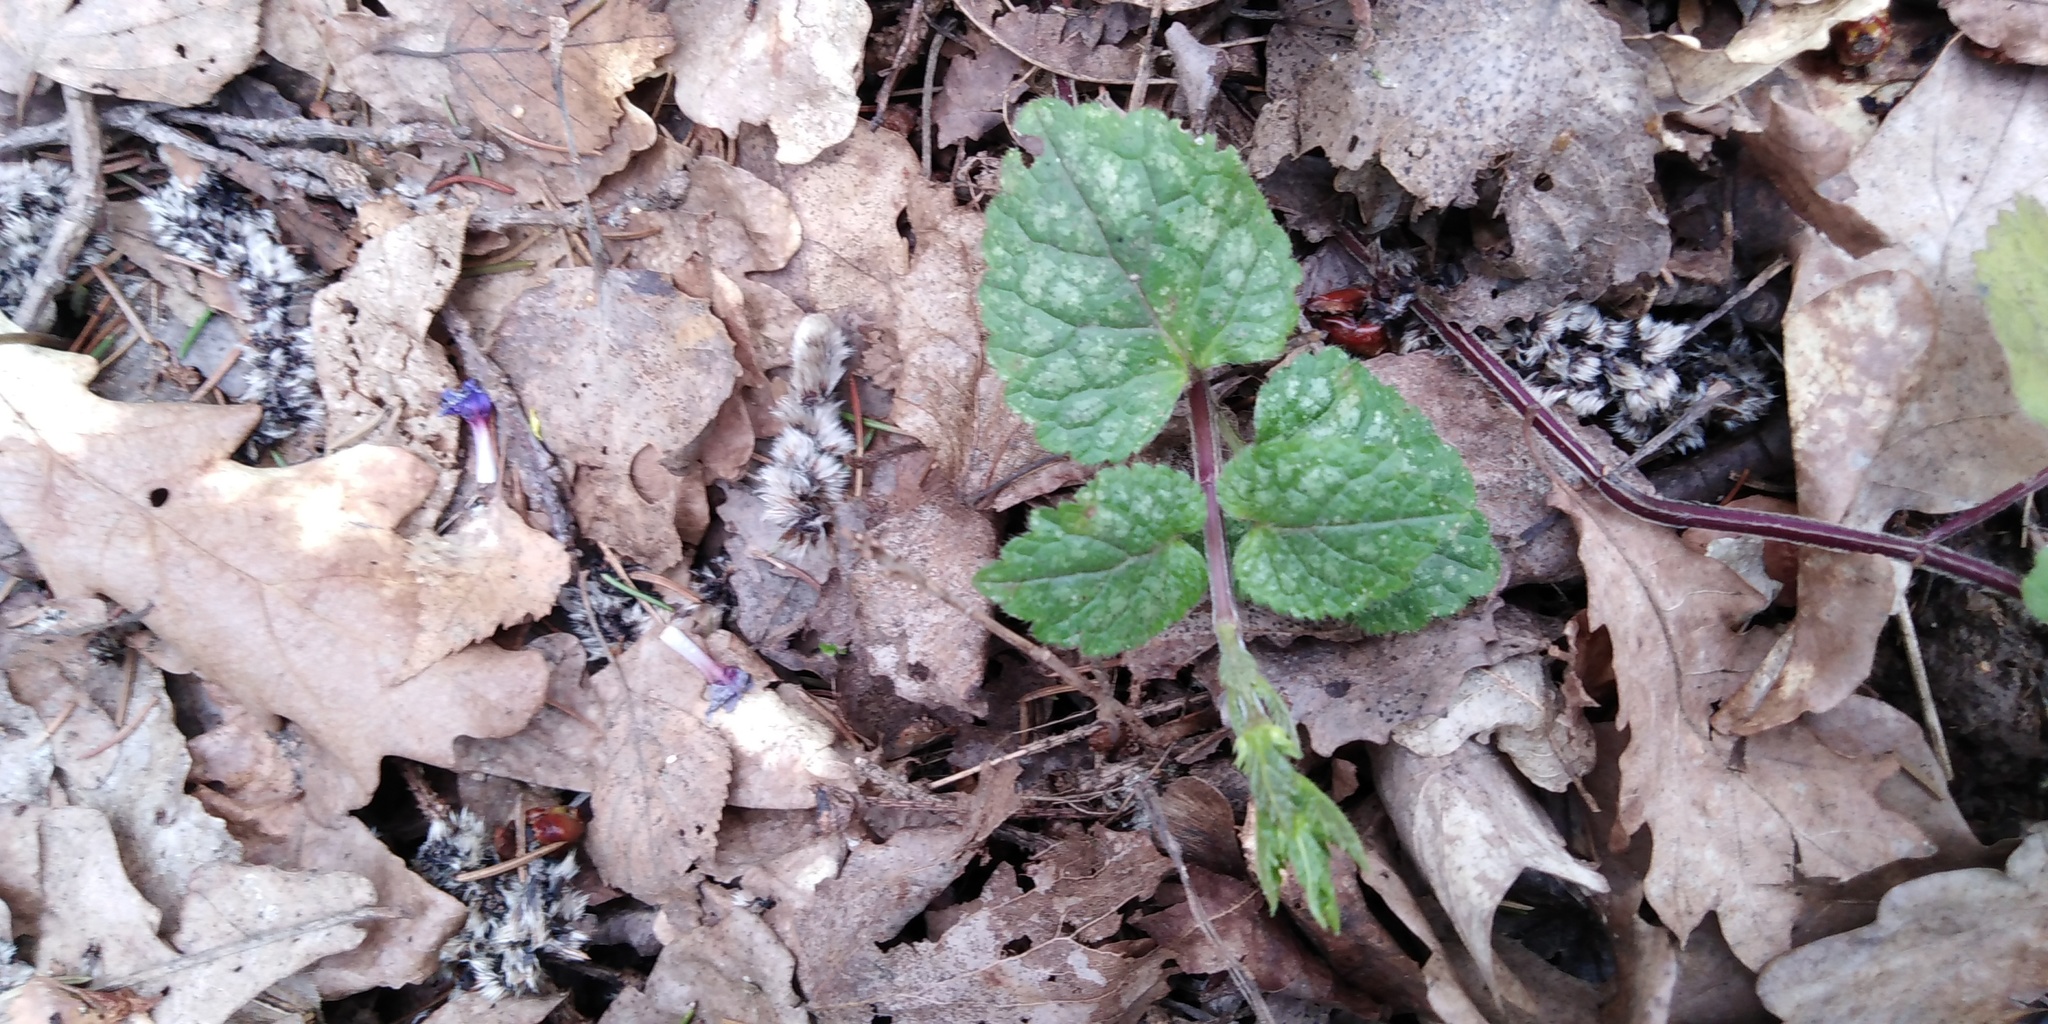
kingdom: Plantae
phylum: Tracheophyta
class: Magnoliopsida
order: Lamiales
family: Lamiaceae
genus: Lamium
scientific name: Lamium galeobdolon
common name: Yellow archangel
